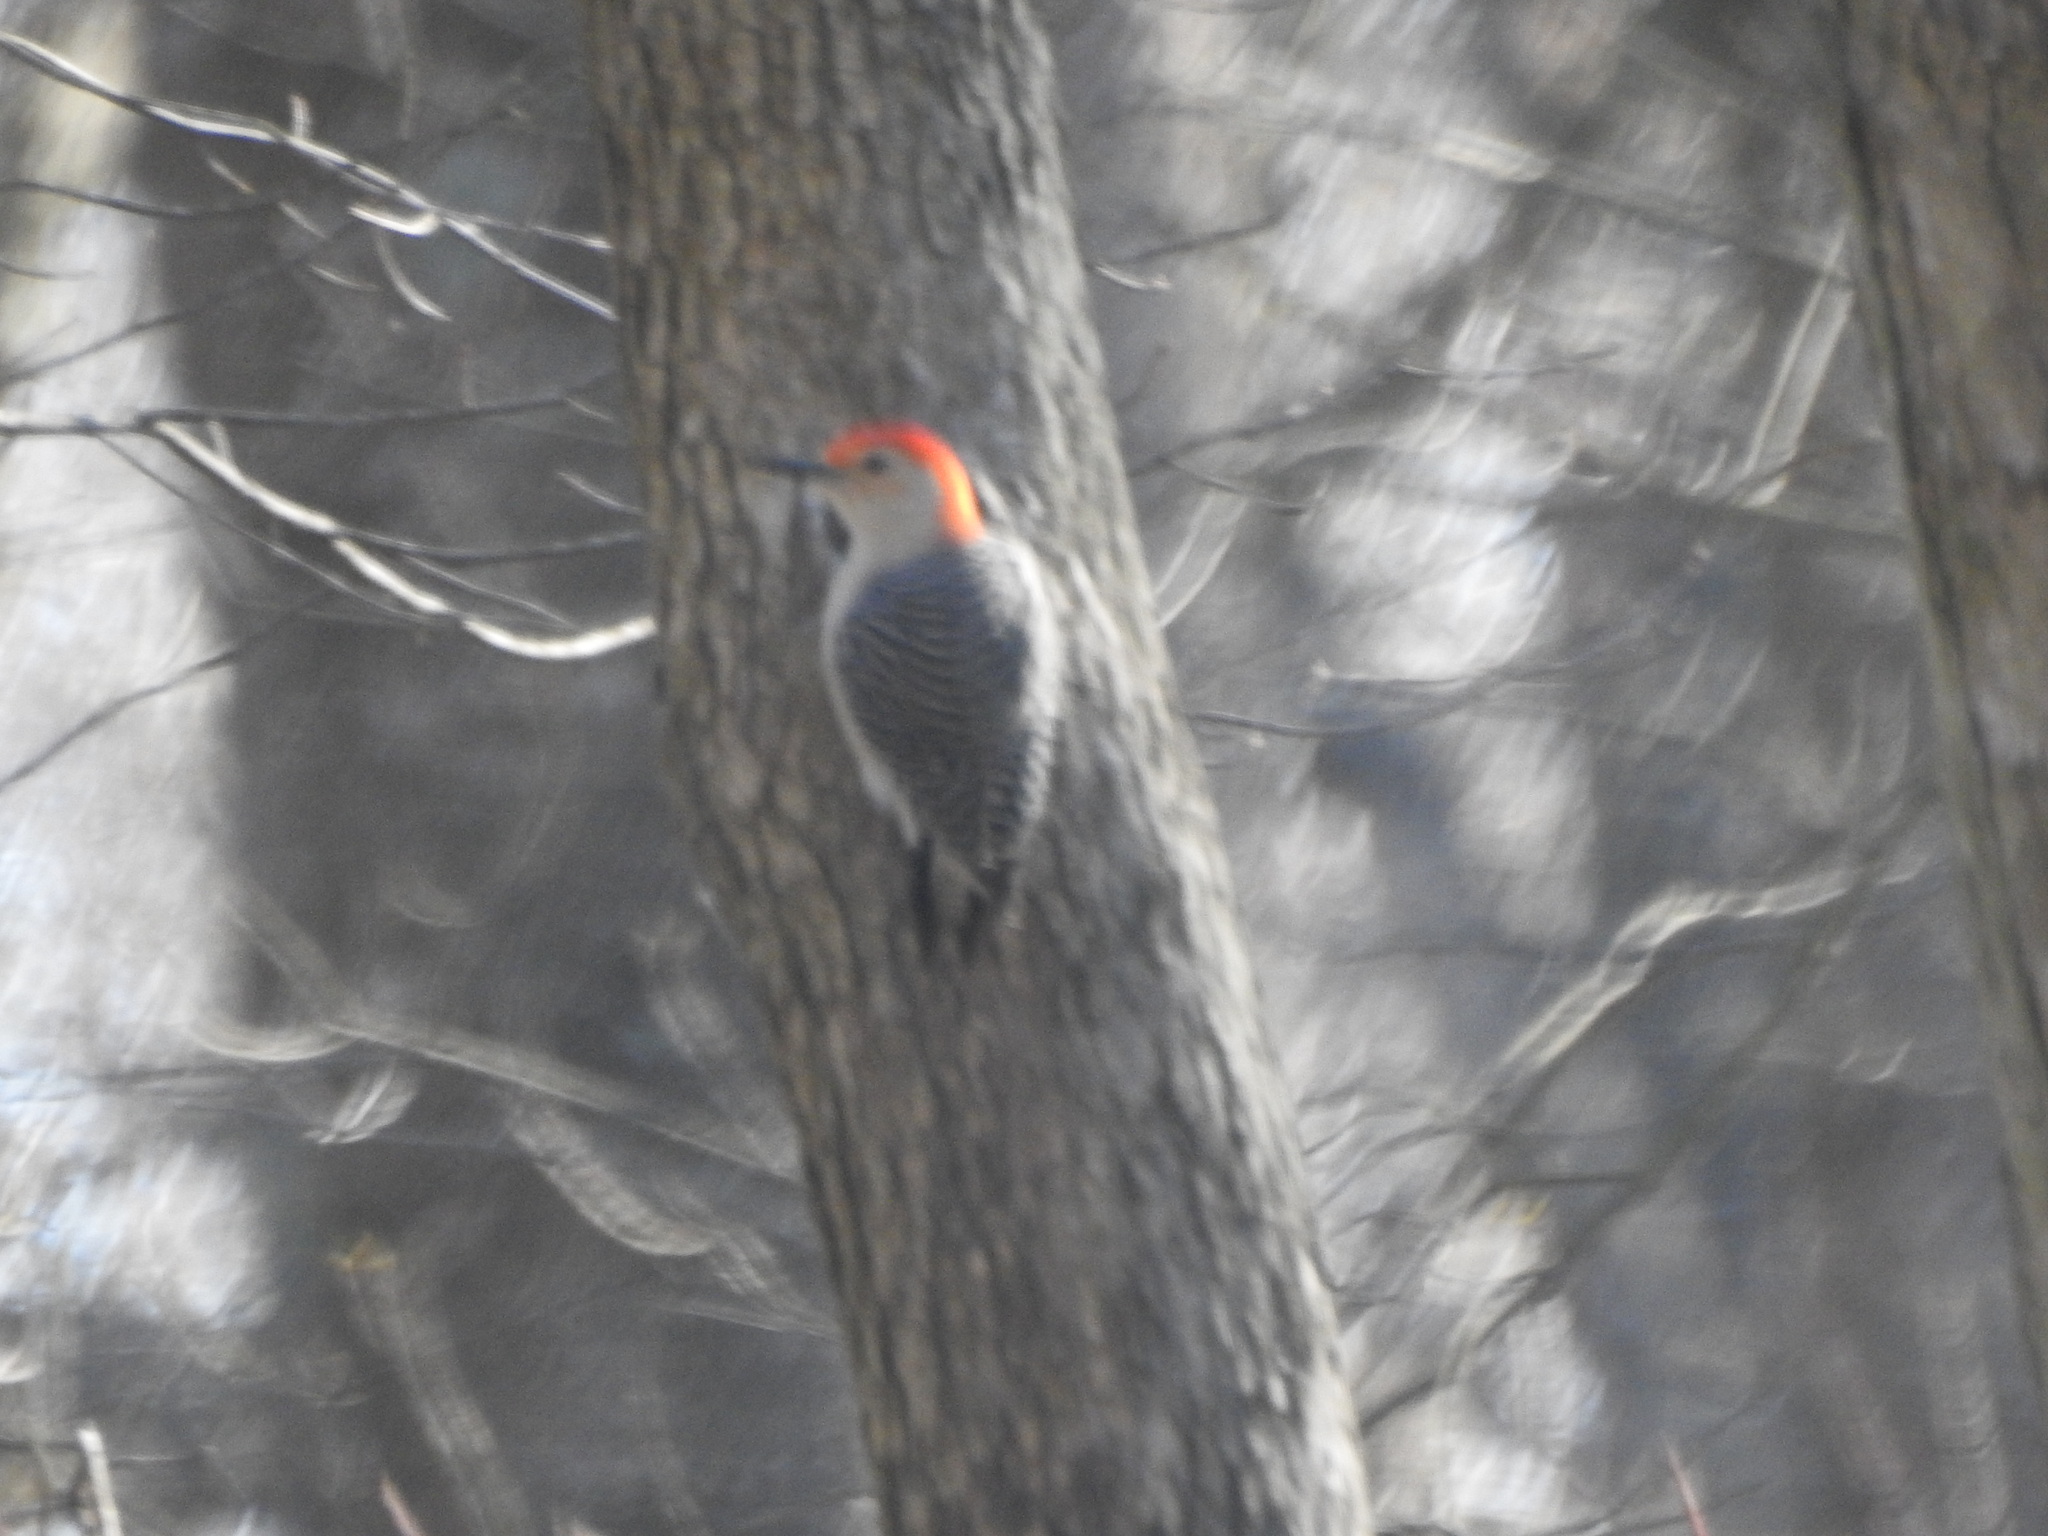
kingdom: Animalia
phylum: Chordata
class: Aves
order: Piciformes
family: Picidae
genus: Melanerpes
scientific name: Melanerpes carolinus
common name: Red-bellied woodpecker
